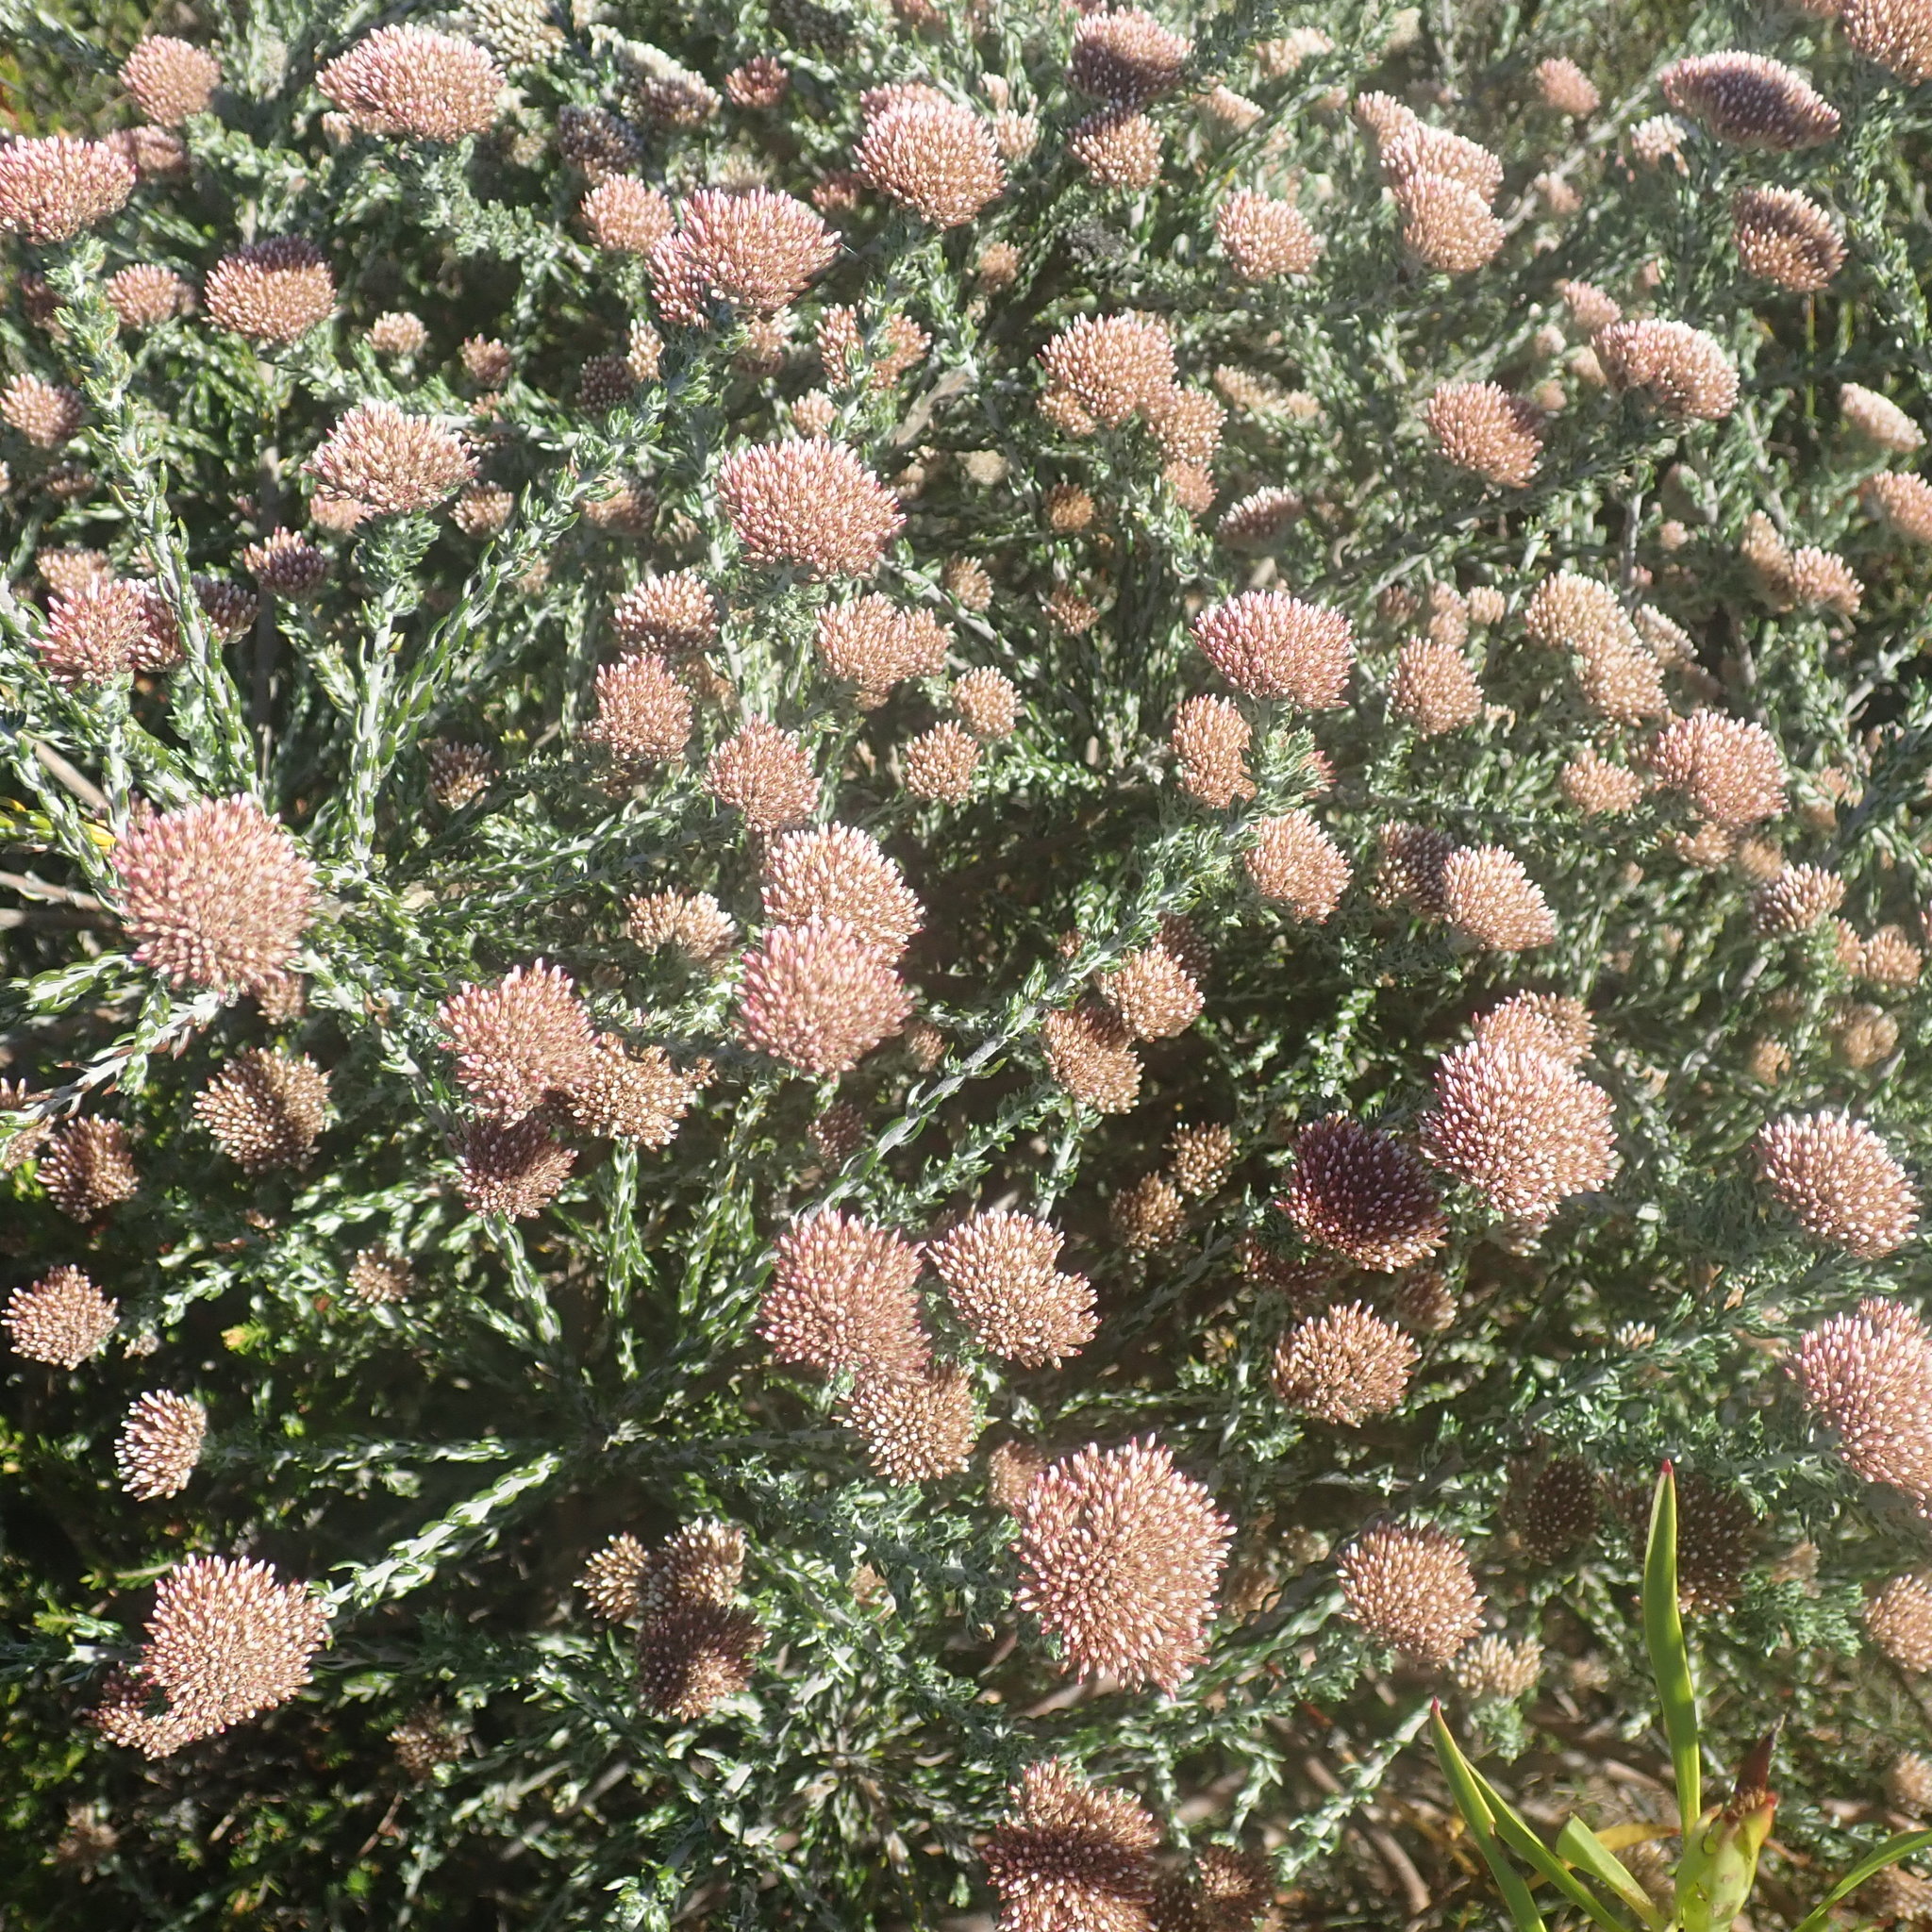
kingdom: Plantae
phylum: Tracheophyta
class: Magnoliopsida
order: Asterales
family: Asteraceae
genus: Metalasia
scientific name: Metalasia pungens
